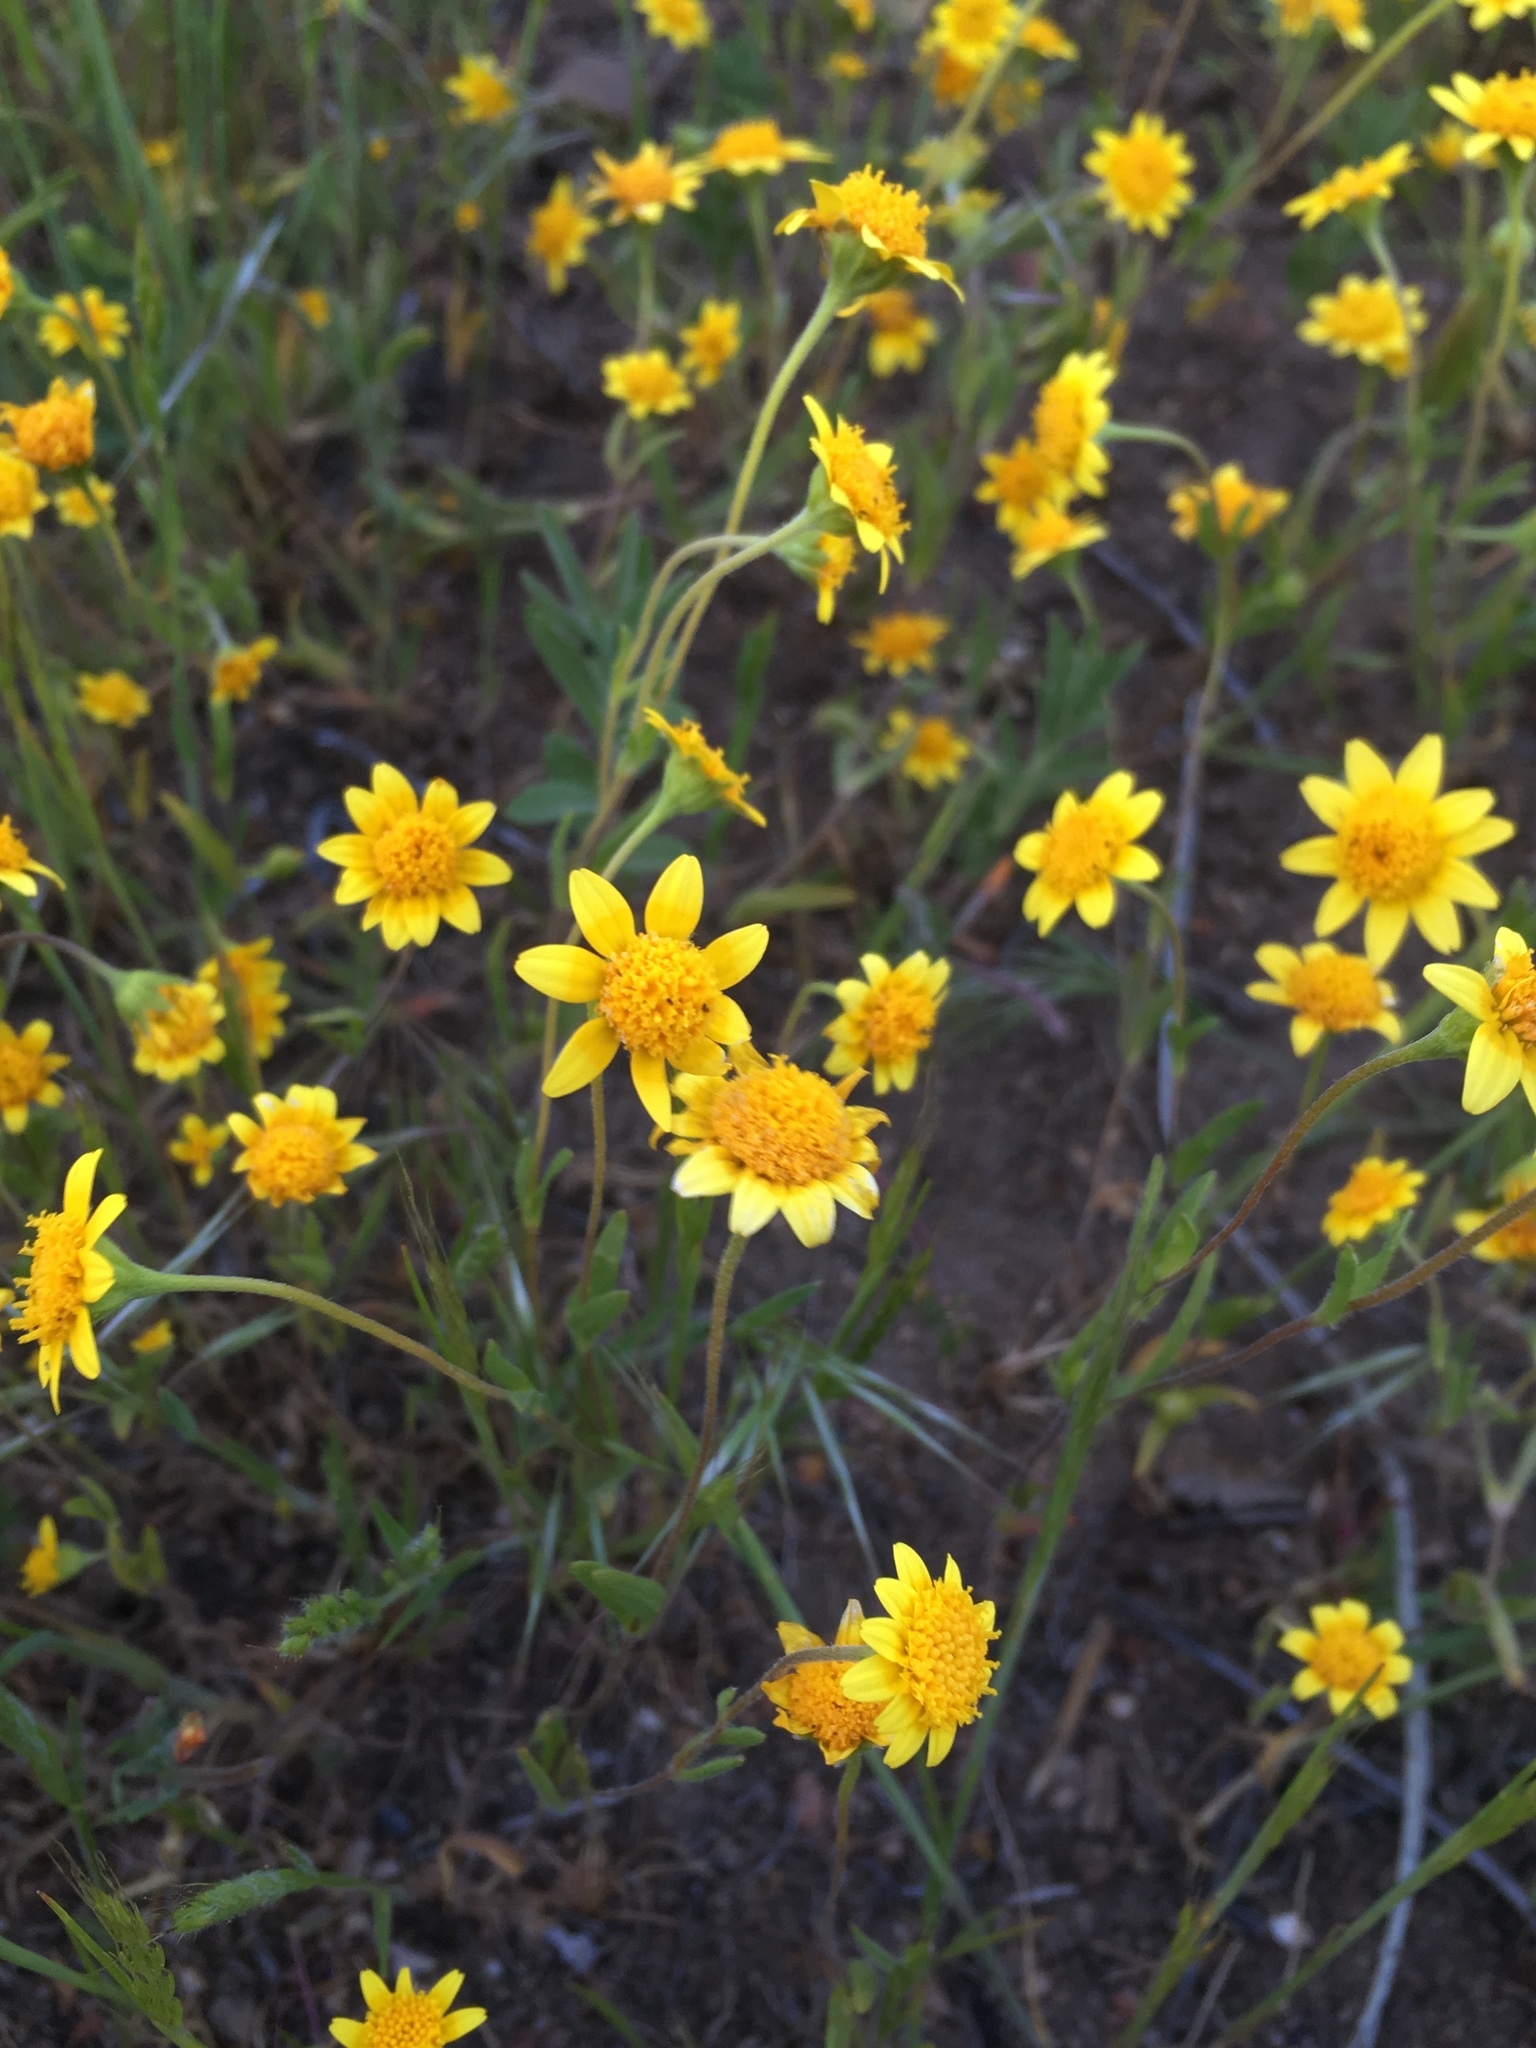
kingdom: Plantae
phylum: Tracheophyta
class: Magnoliopsida
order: Asterales
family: Asteraceae
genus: Lasthenia
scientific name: Lasthenia gracilis
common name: Common goldfields
